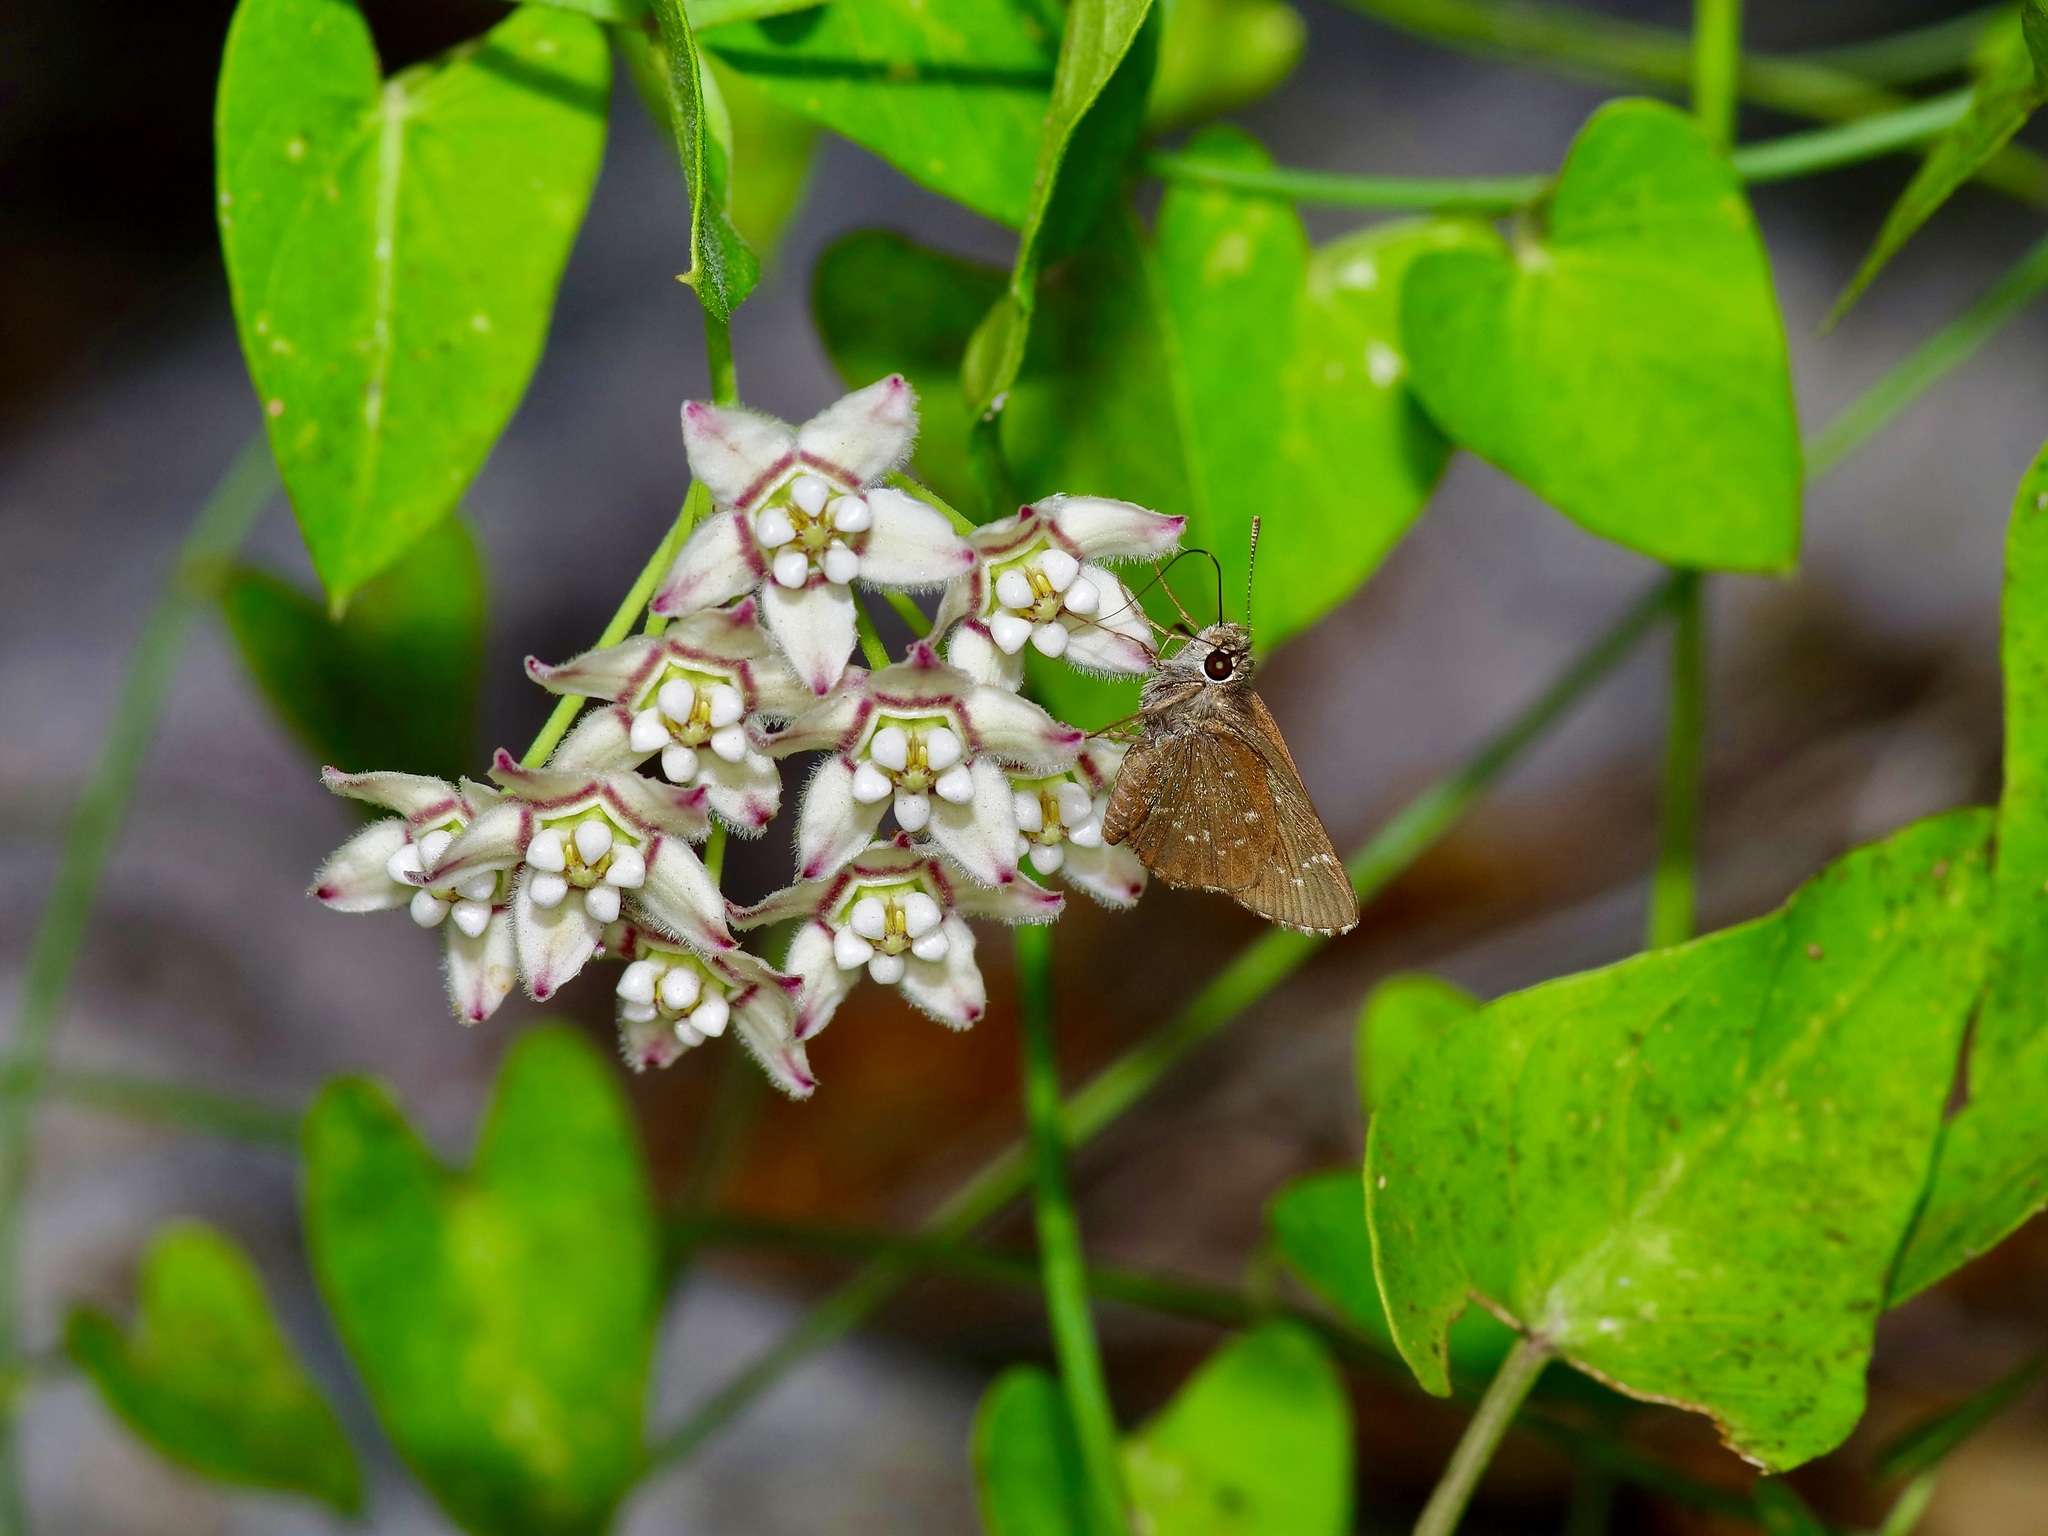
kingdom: Plantae
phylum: Tracheophyta
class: Magnoliopsida
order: Gentianales
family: Apocynaceae
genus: Funastrum
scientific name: Funastrum cynanchoides
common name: Climbing-milkweed
